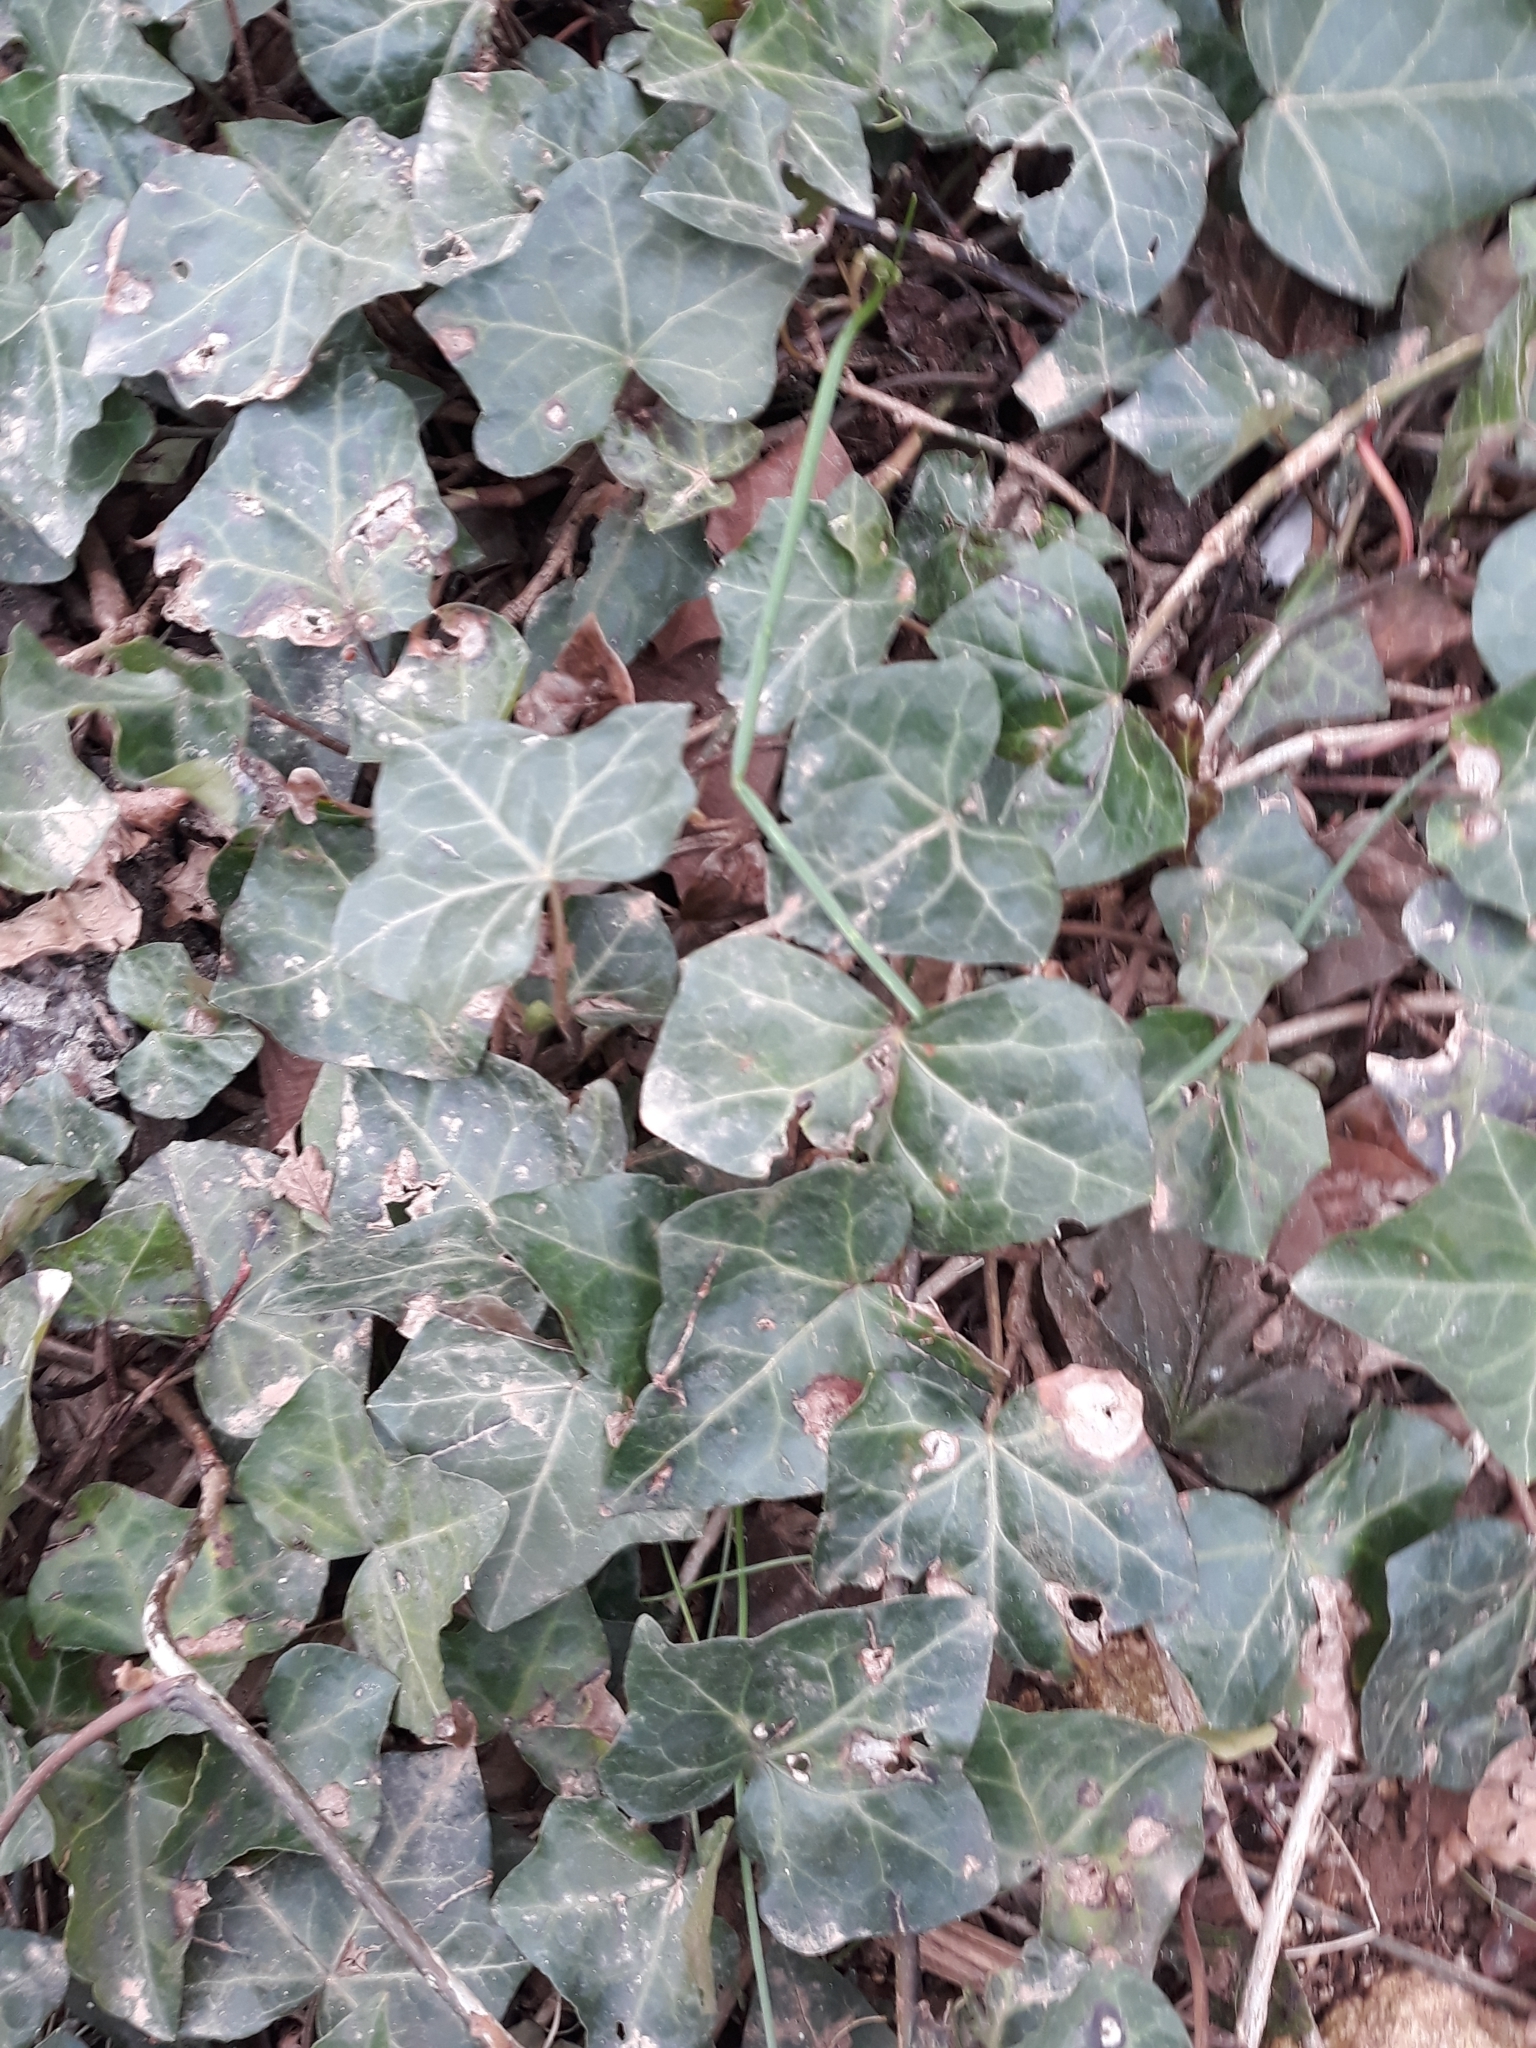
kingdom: Plantae
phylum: Tracheophyta
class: Magnoliopsida
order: Apiales
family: Araliaceae
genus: Hedera
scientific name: Hedera helix
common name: Ivy
